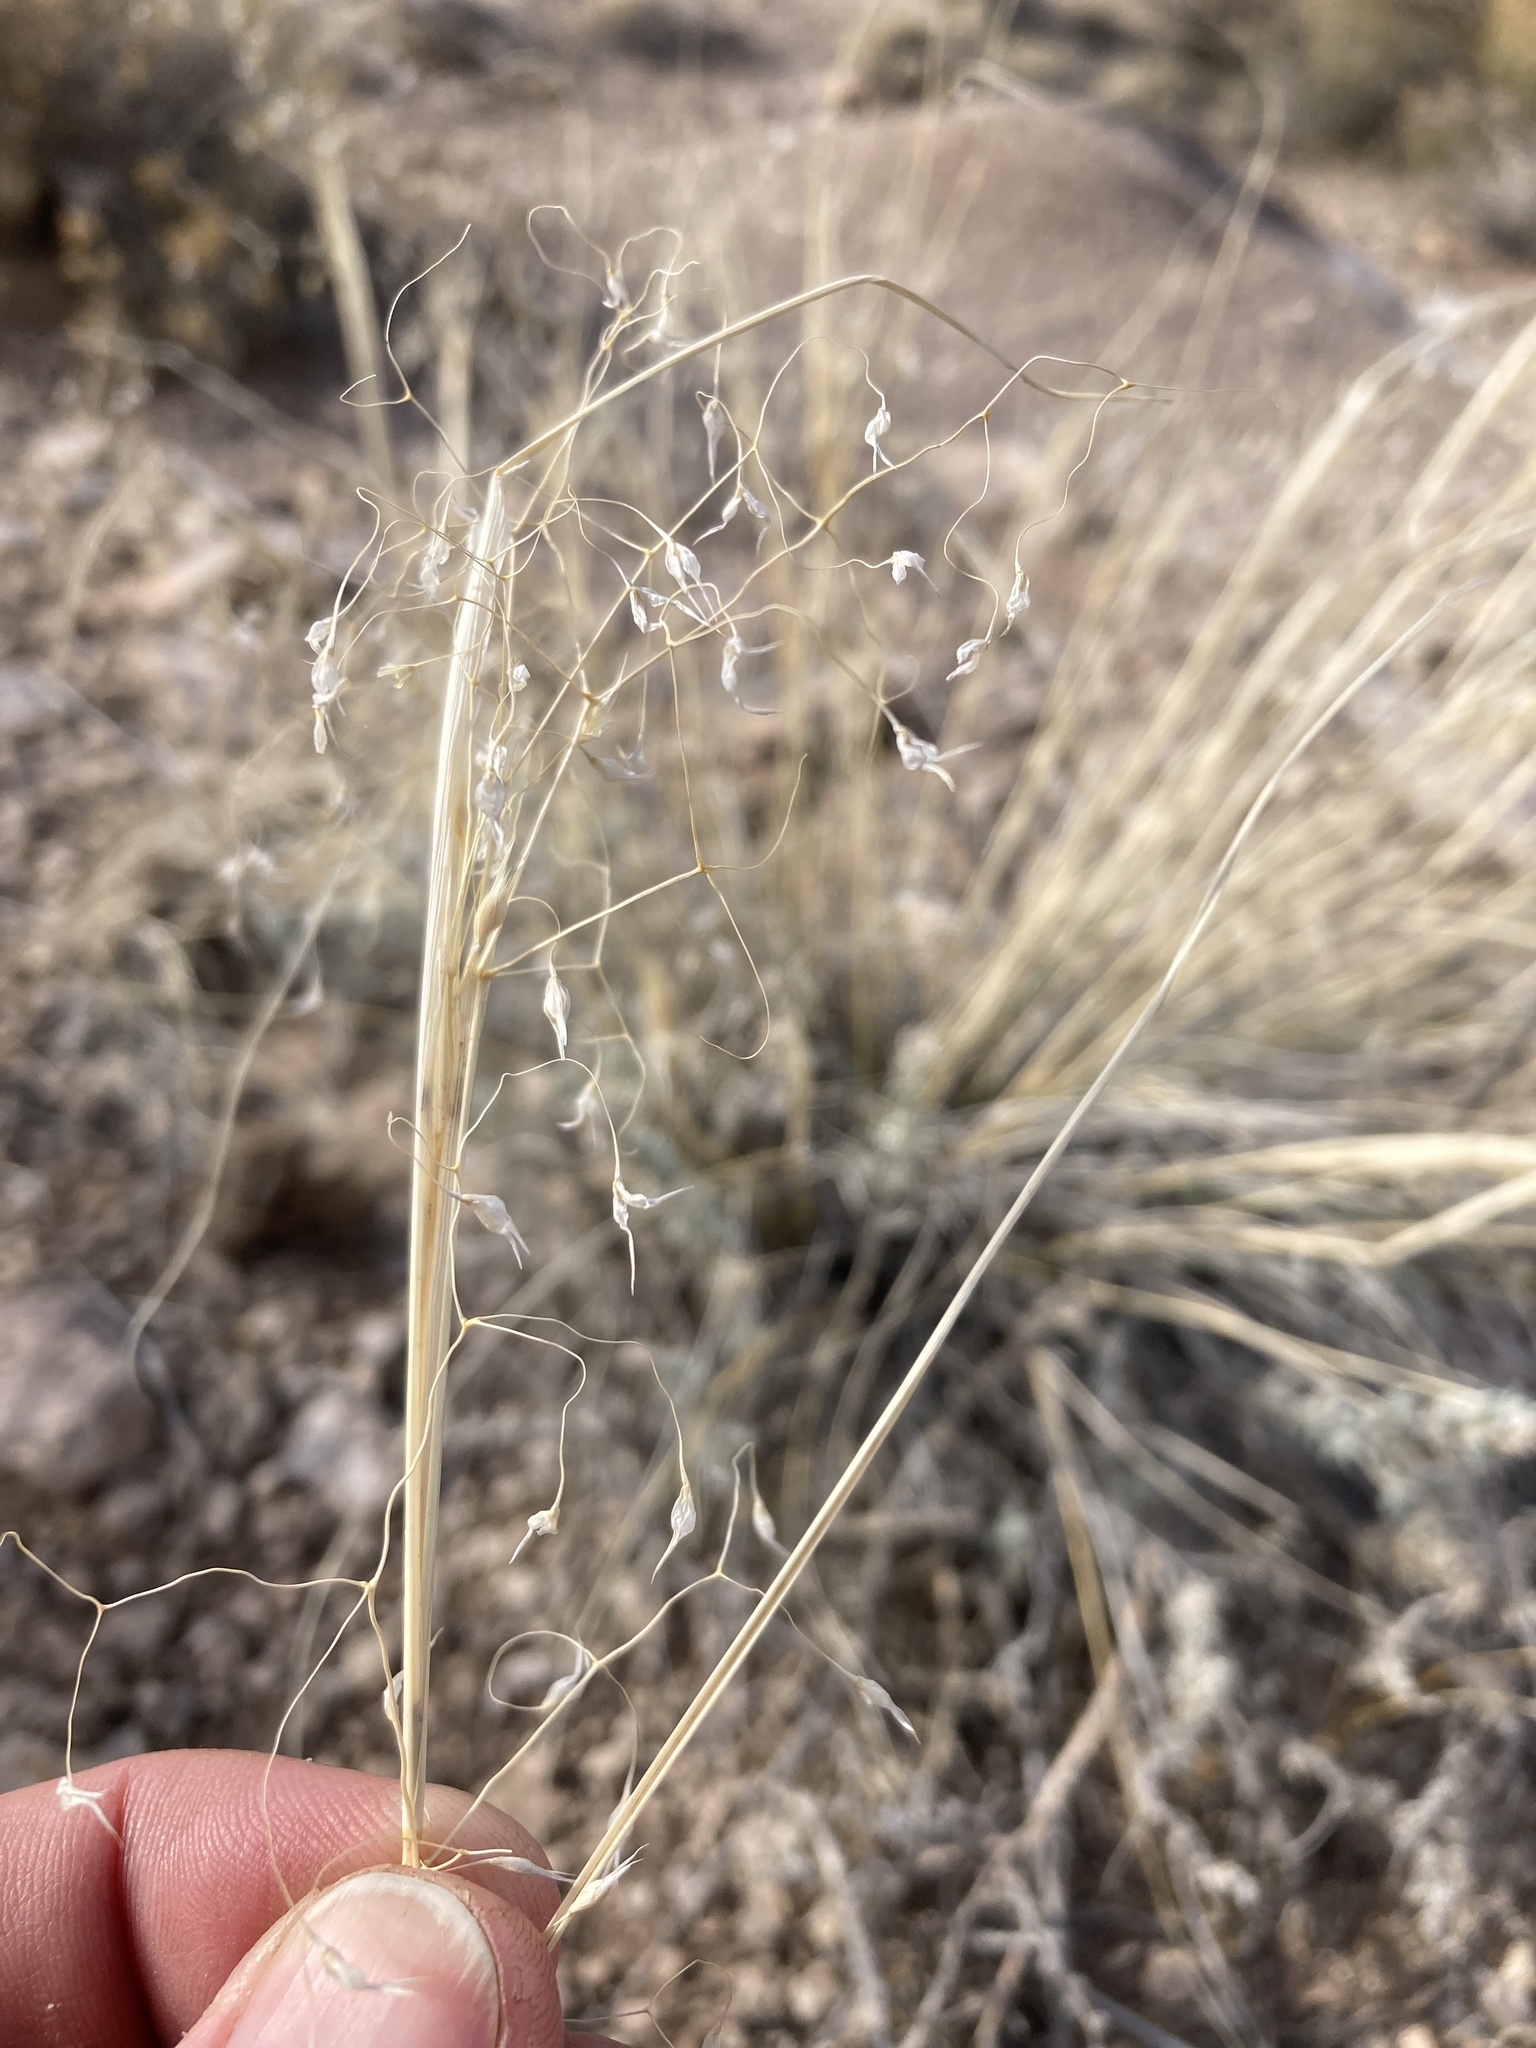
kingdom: Plantae
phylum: Tracheophyta
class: Liliopsida
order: Poales
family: Poaceae
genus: Eriocoma
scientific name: Eriocoma hymenoides
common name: Indian mountain ricegrass
